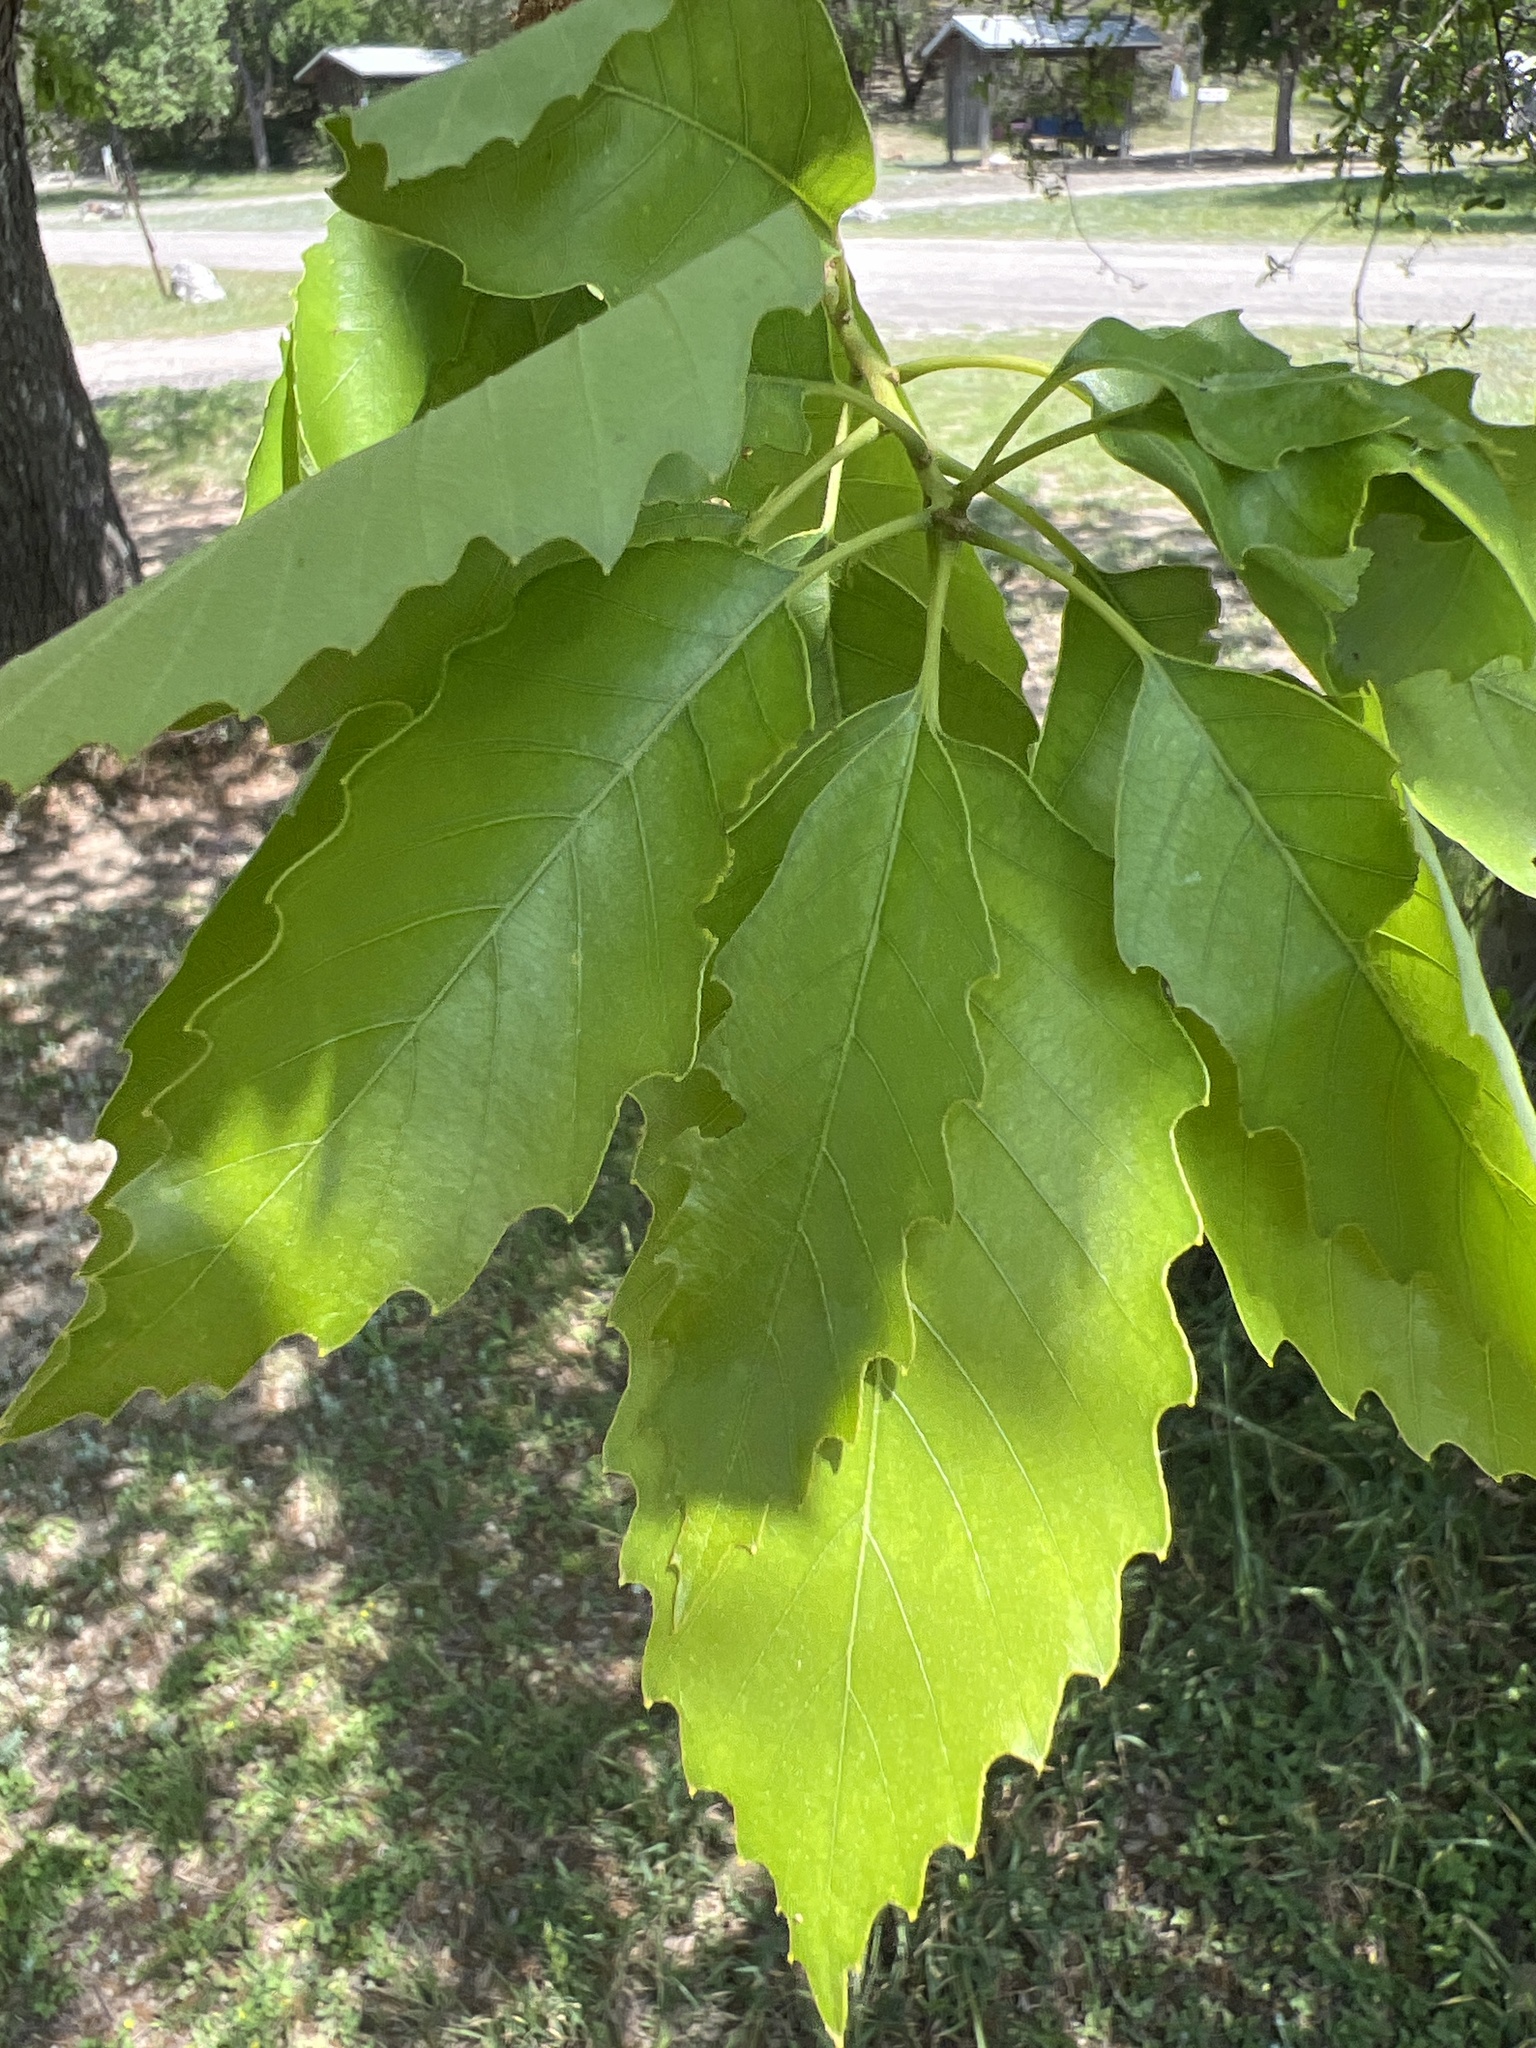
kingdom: Plantae
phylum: Tracheophyta
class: Magnoliopsida
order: Fagales
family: Fagaceae
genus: Quercus
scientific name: Quercus muehlenbergii
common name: Chinkapin oak
